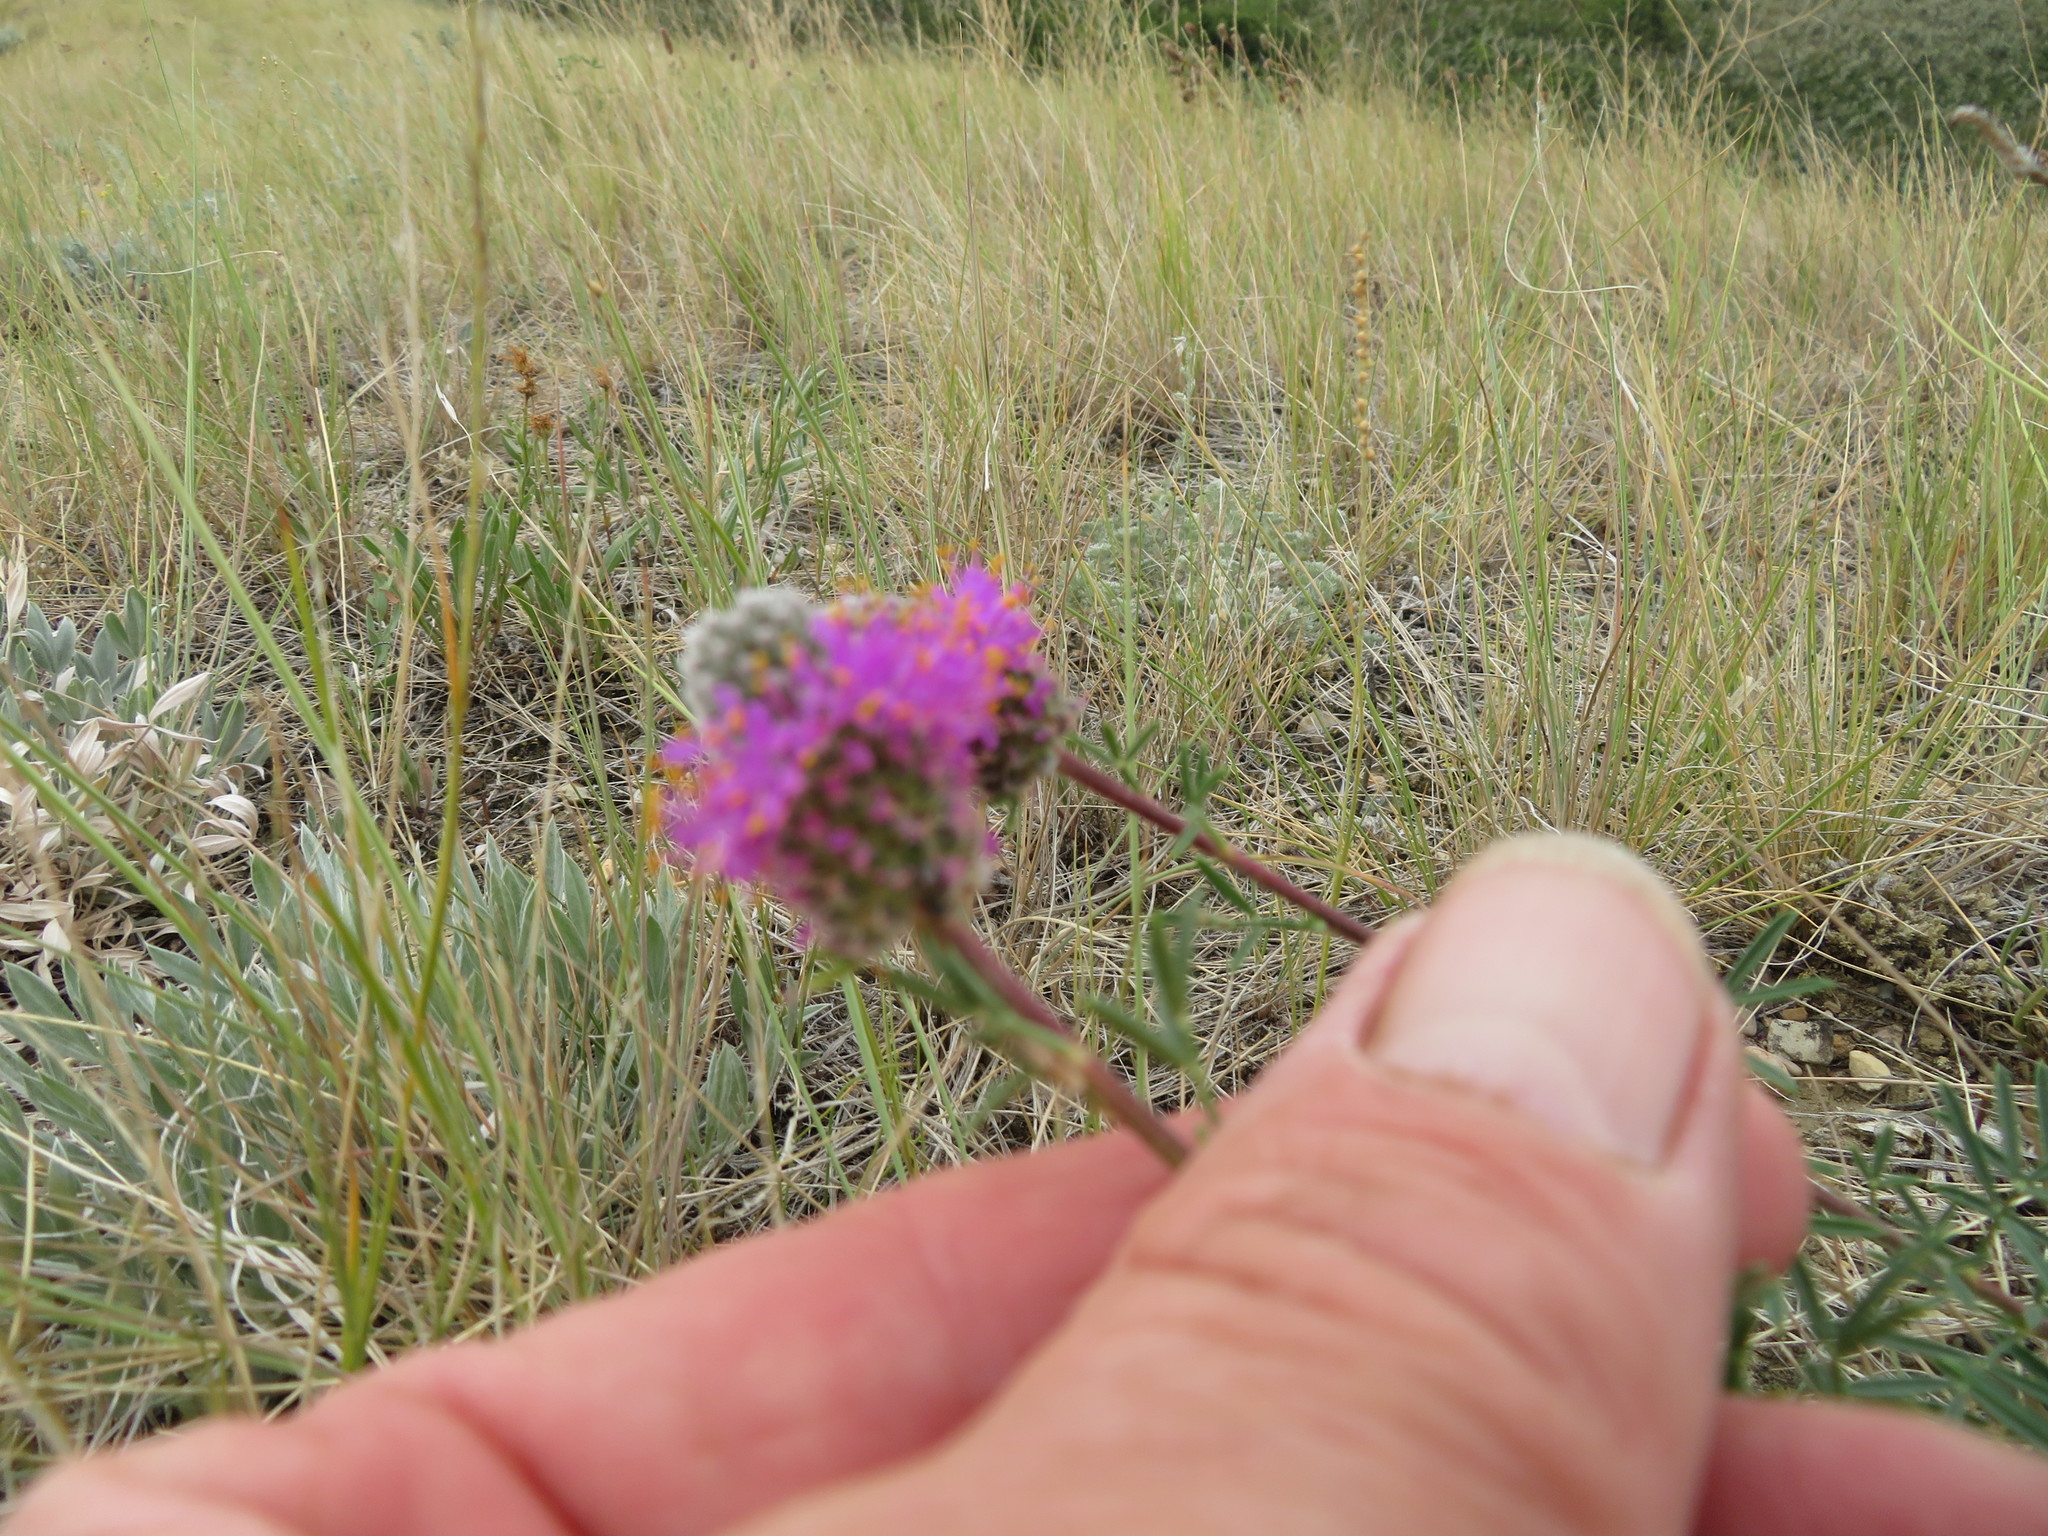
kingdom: Plantae
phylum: Tracheophyta
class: Magnoliopsida
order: Fabales
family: Fabaceae
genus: Dalea
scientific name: Dalea purpurea
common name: Purple prairie-clover
